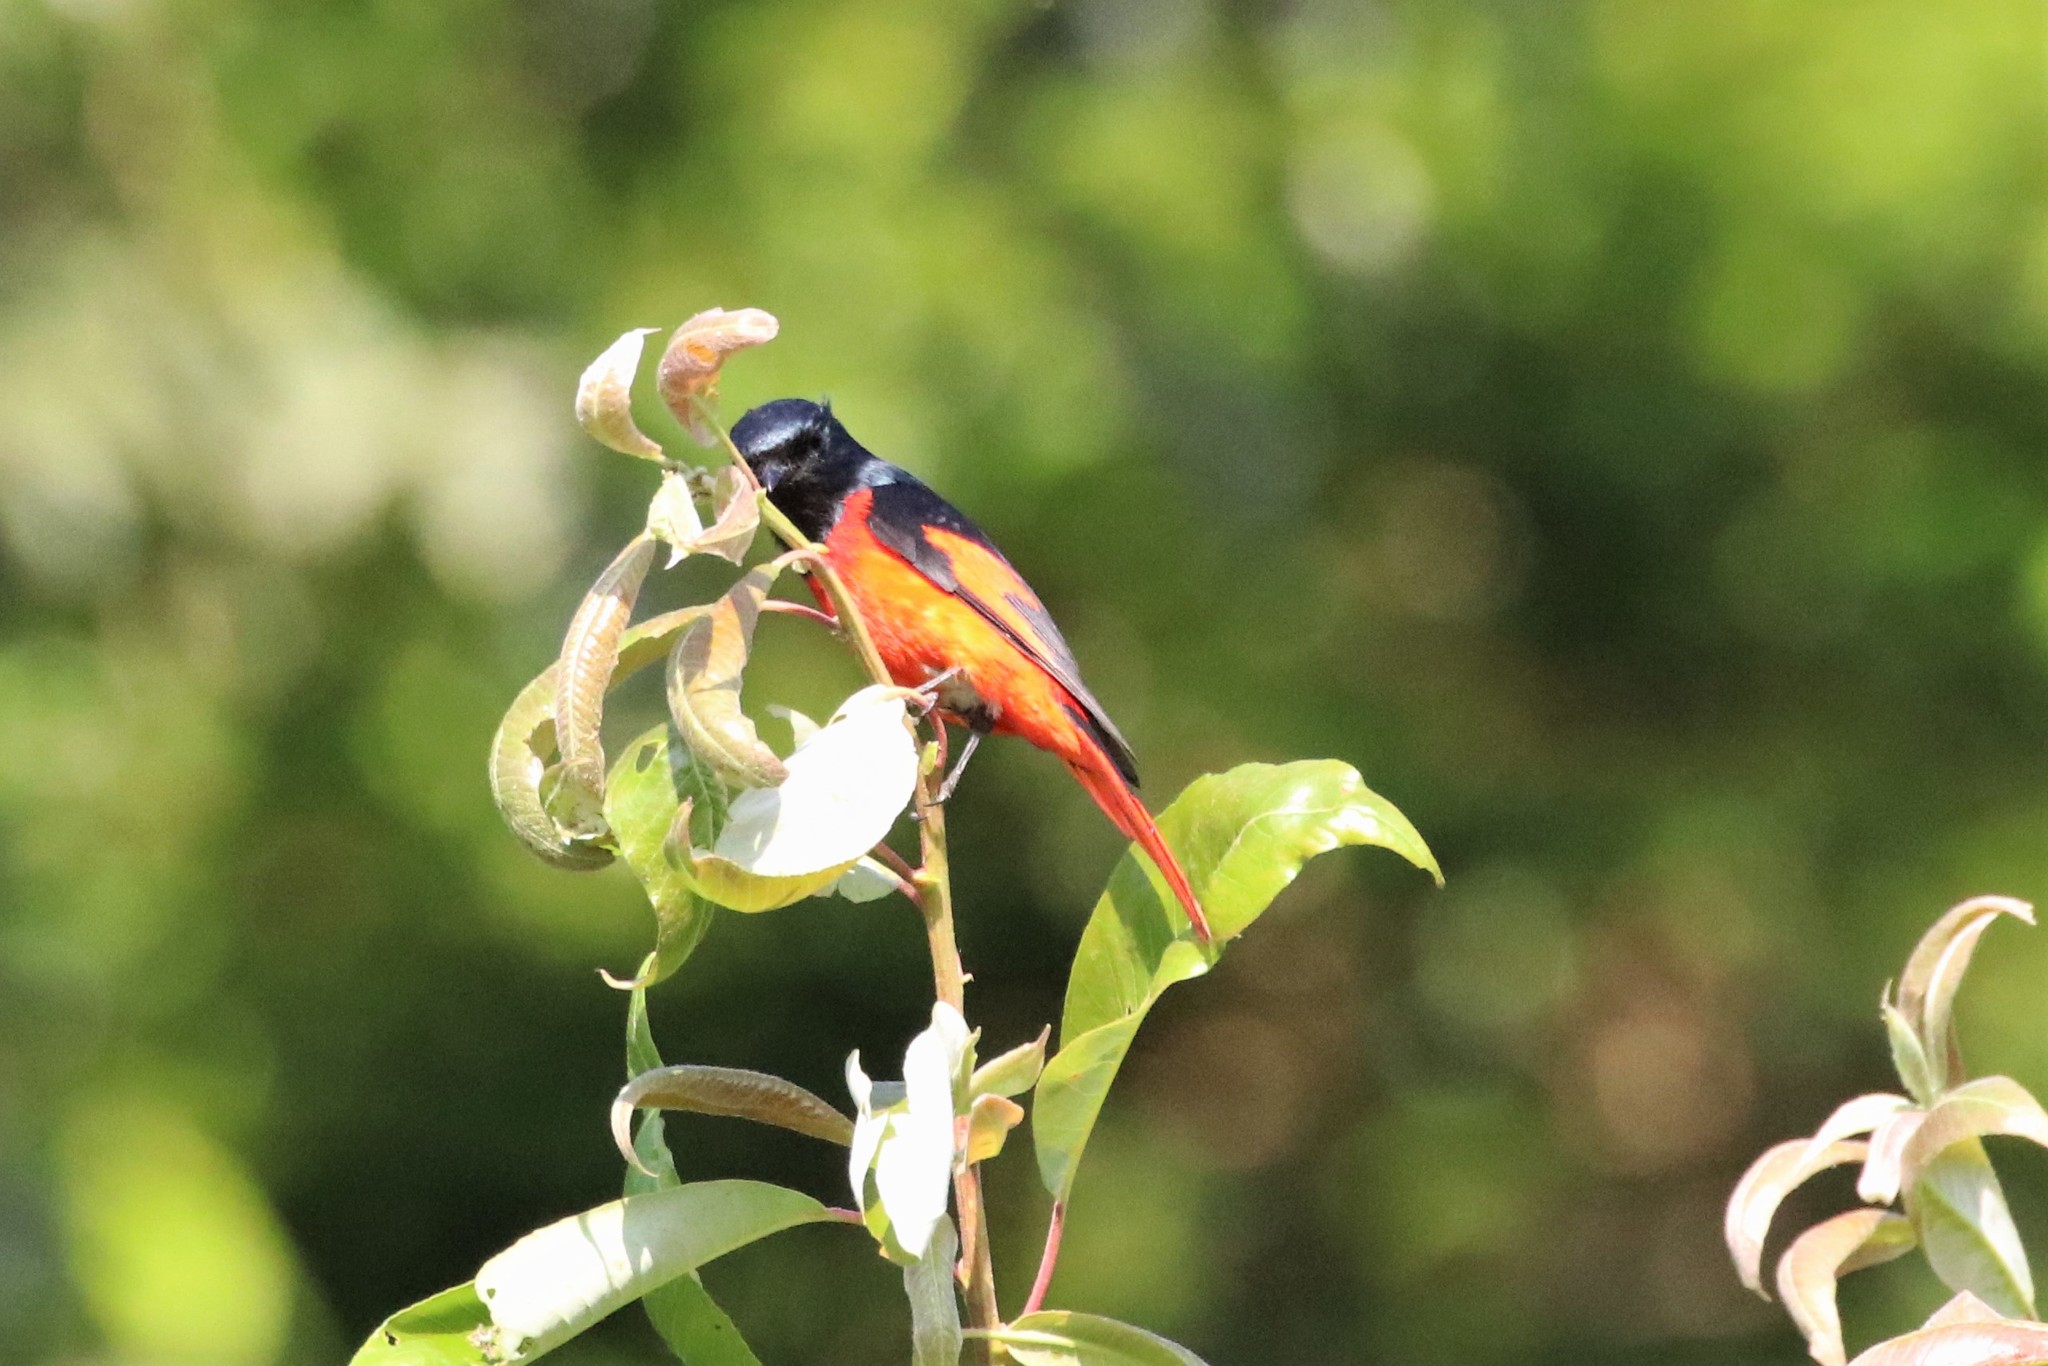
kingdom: Animalia
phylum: Chordata
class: Aves
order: Passeriformes
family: Campephagidae
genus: Pericrocotus
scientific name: Pericrocotus brevirostris
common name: Short-billed minivet
